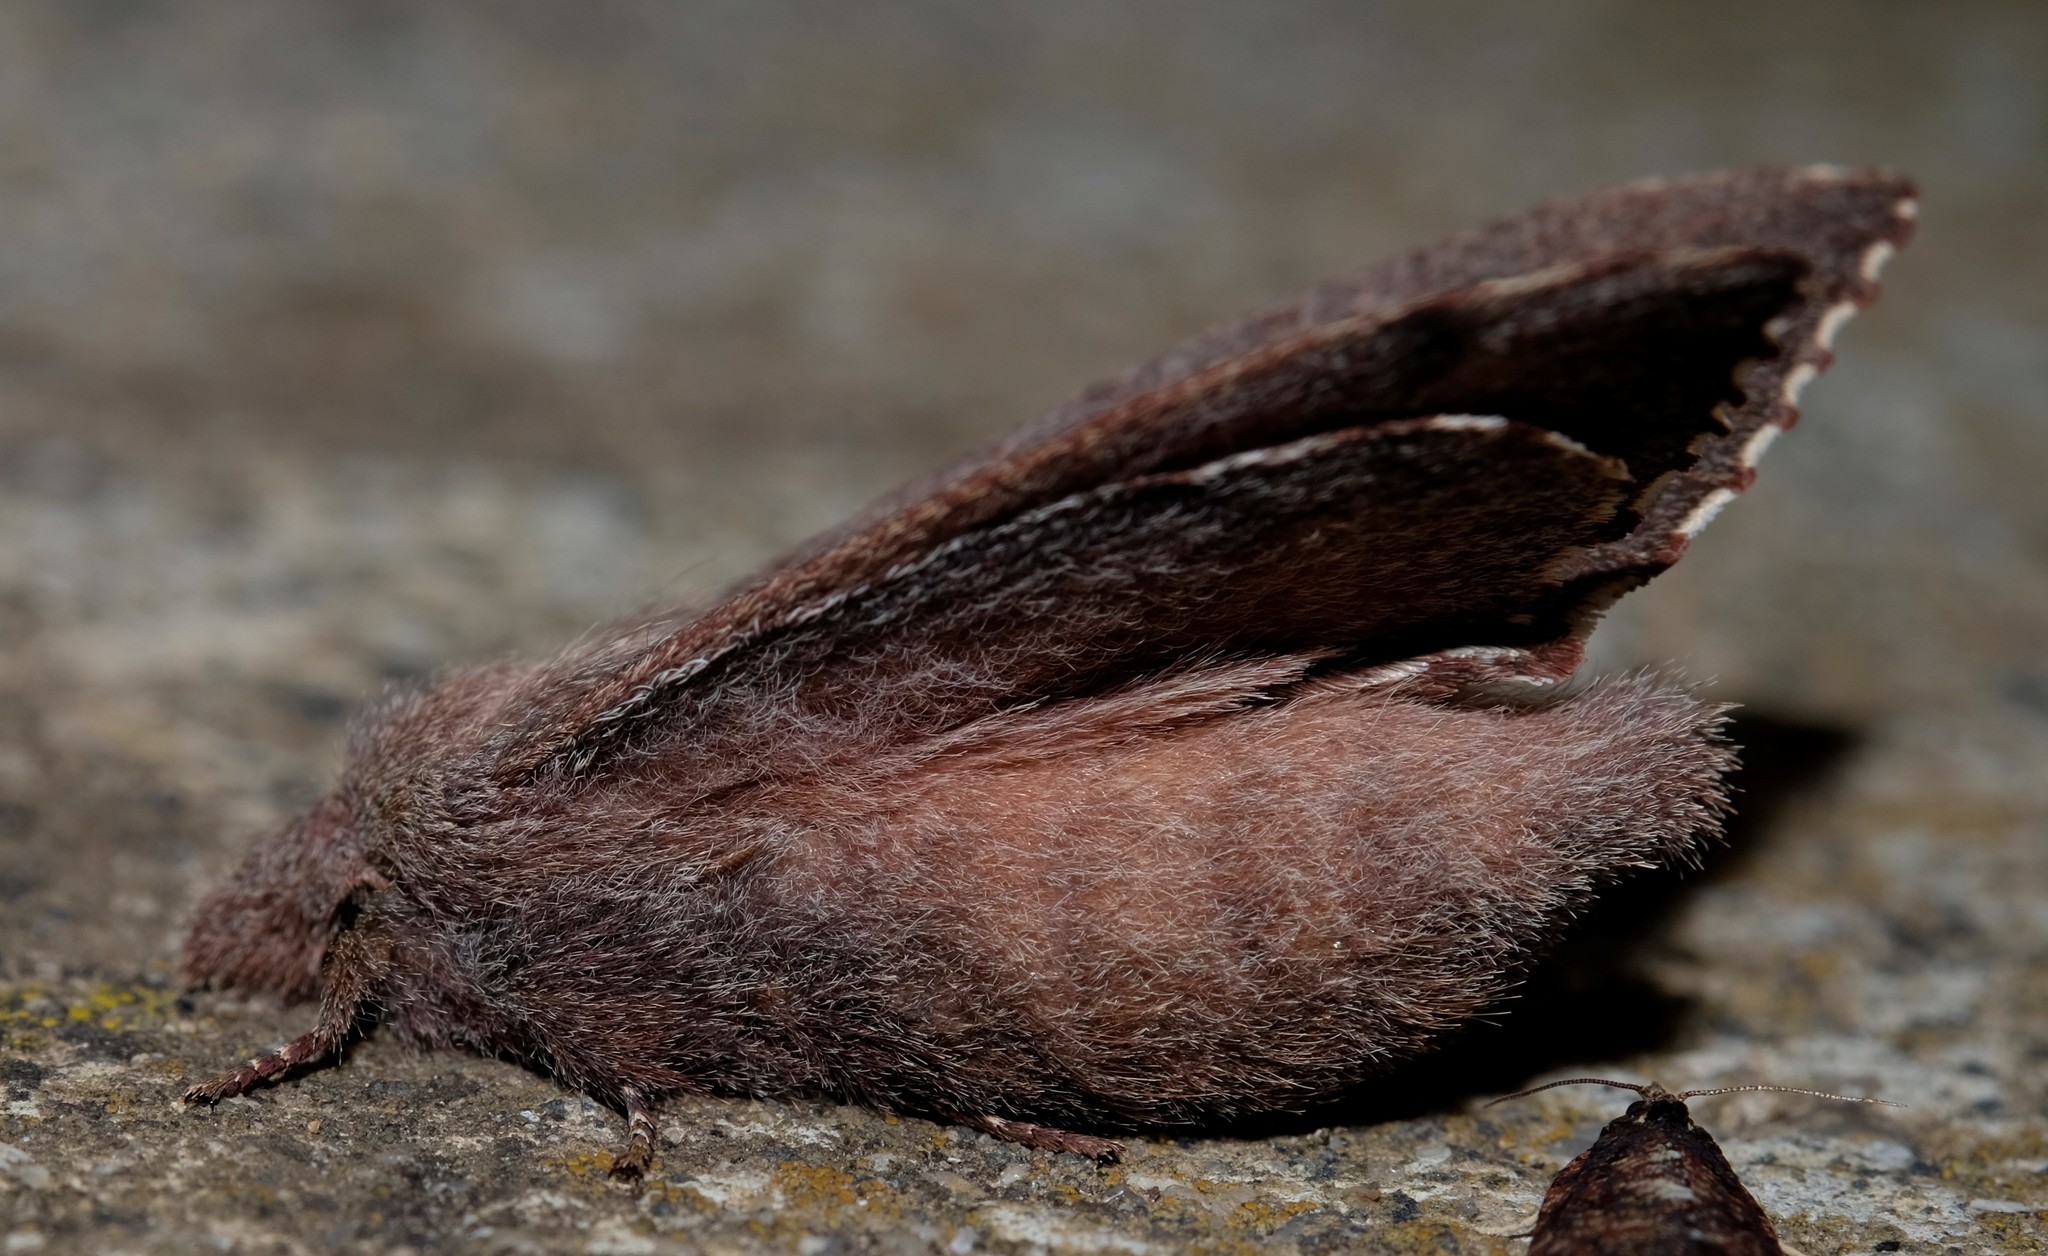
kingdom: Animalia
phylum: Arthropoda
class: Insecta
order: Lepidoptera
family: Lasiocampidae
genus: Pararguda
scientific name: Pararguda rufescens
